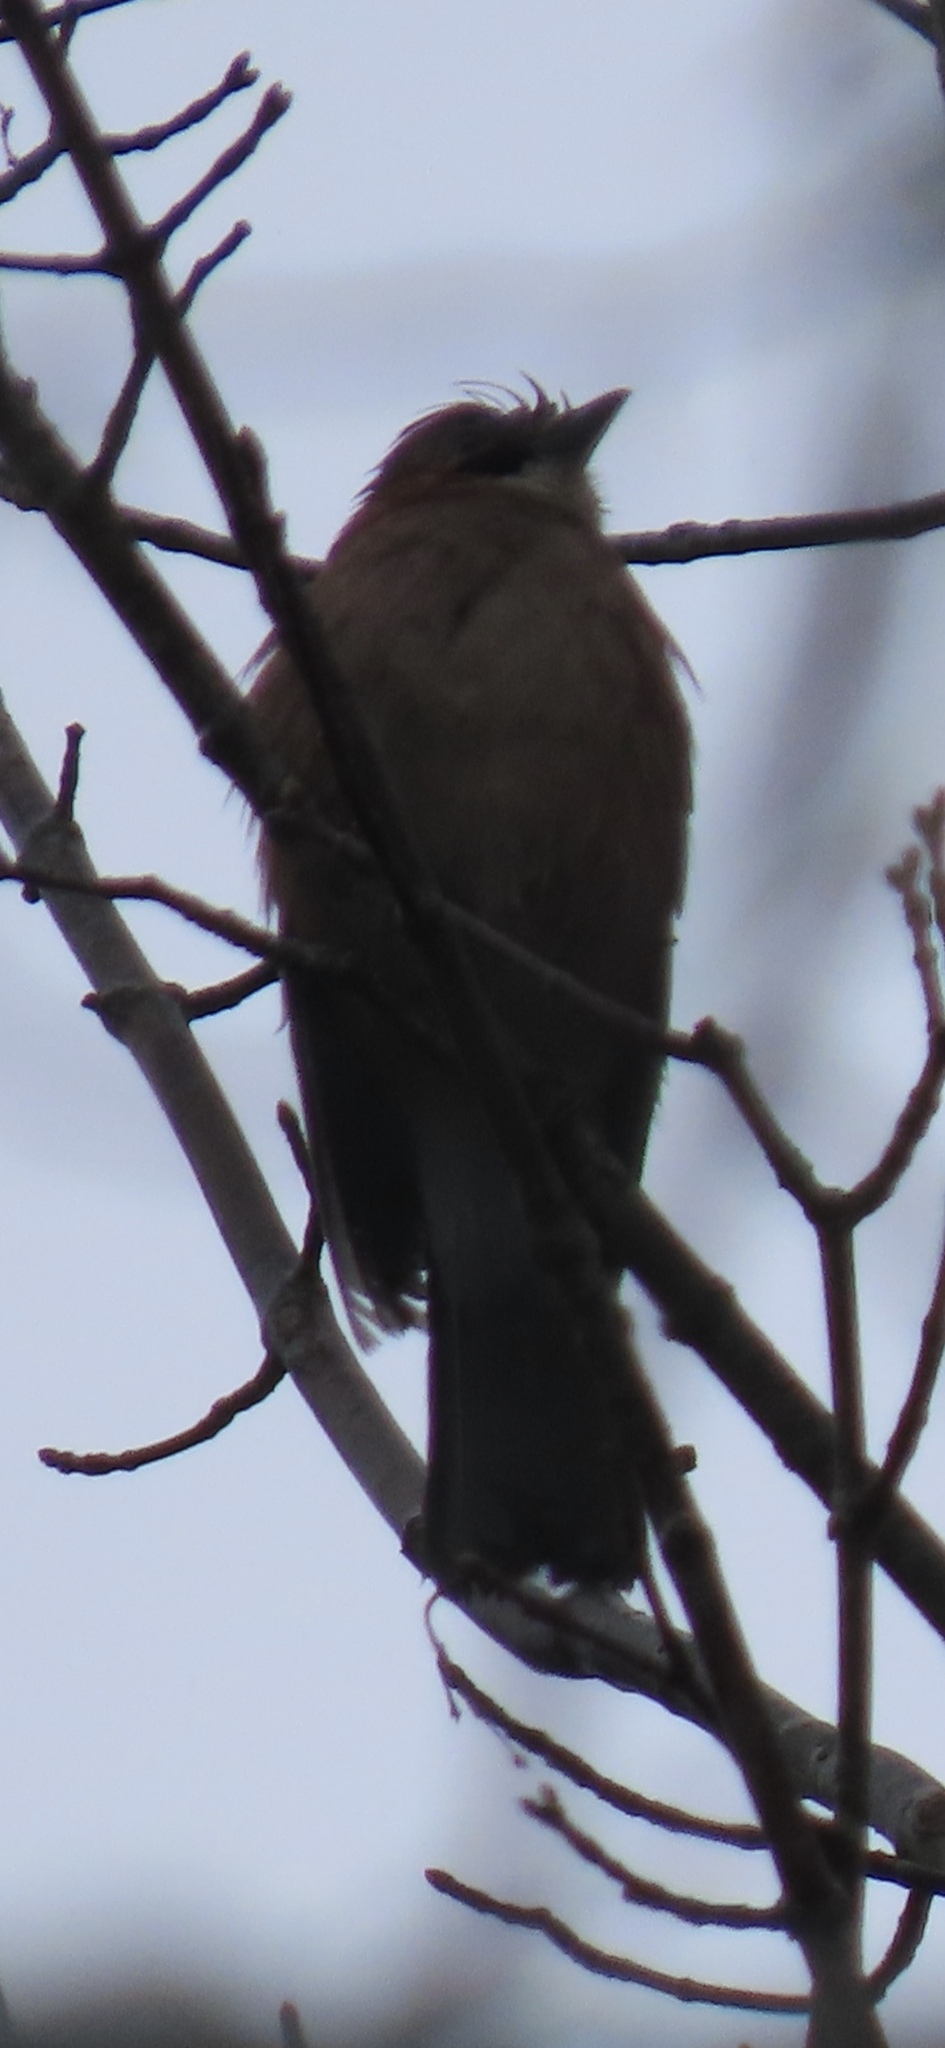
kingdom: Animalia
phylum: Chordata
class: Aves
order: Passeriformes
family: Corvidae
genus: Garrulus
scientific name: Garrulus glandarius
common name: Eurasian jay
